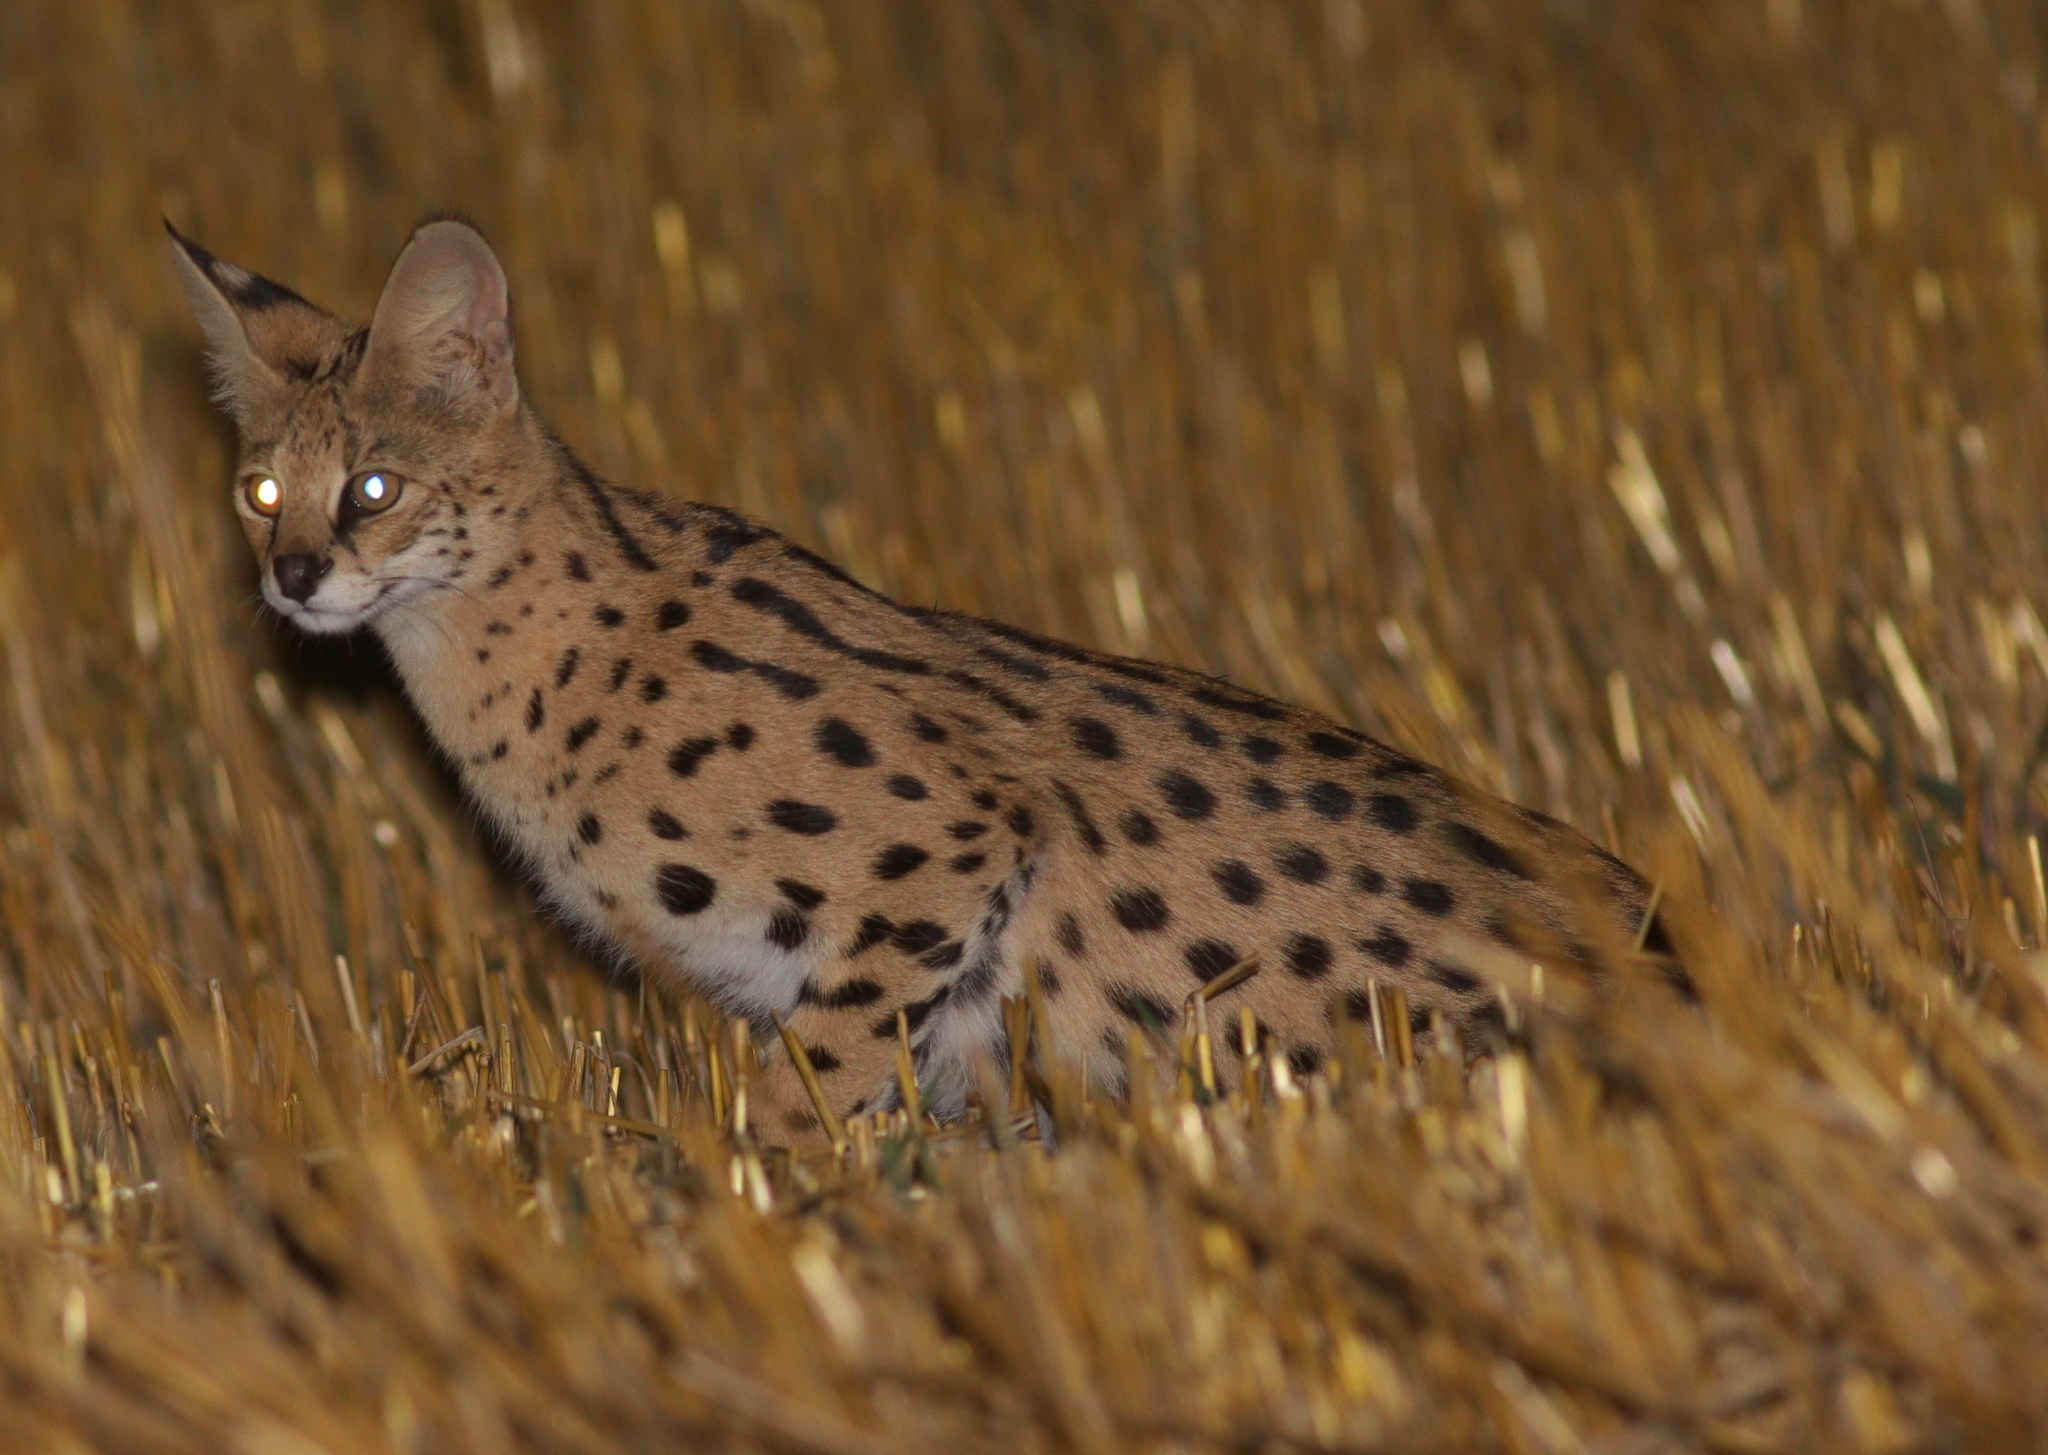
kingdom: Animalia
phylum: Chordata
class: Mammalia
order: Carnivora
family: Felidae
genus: Leptailurus
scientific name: Leptailurus serval
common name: Serval
